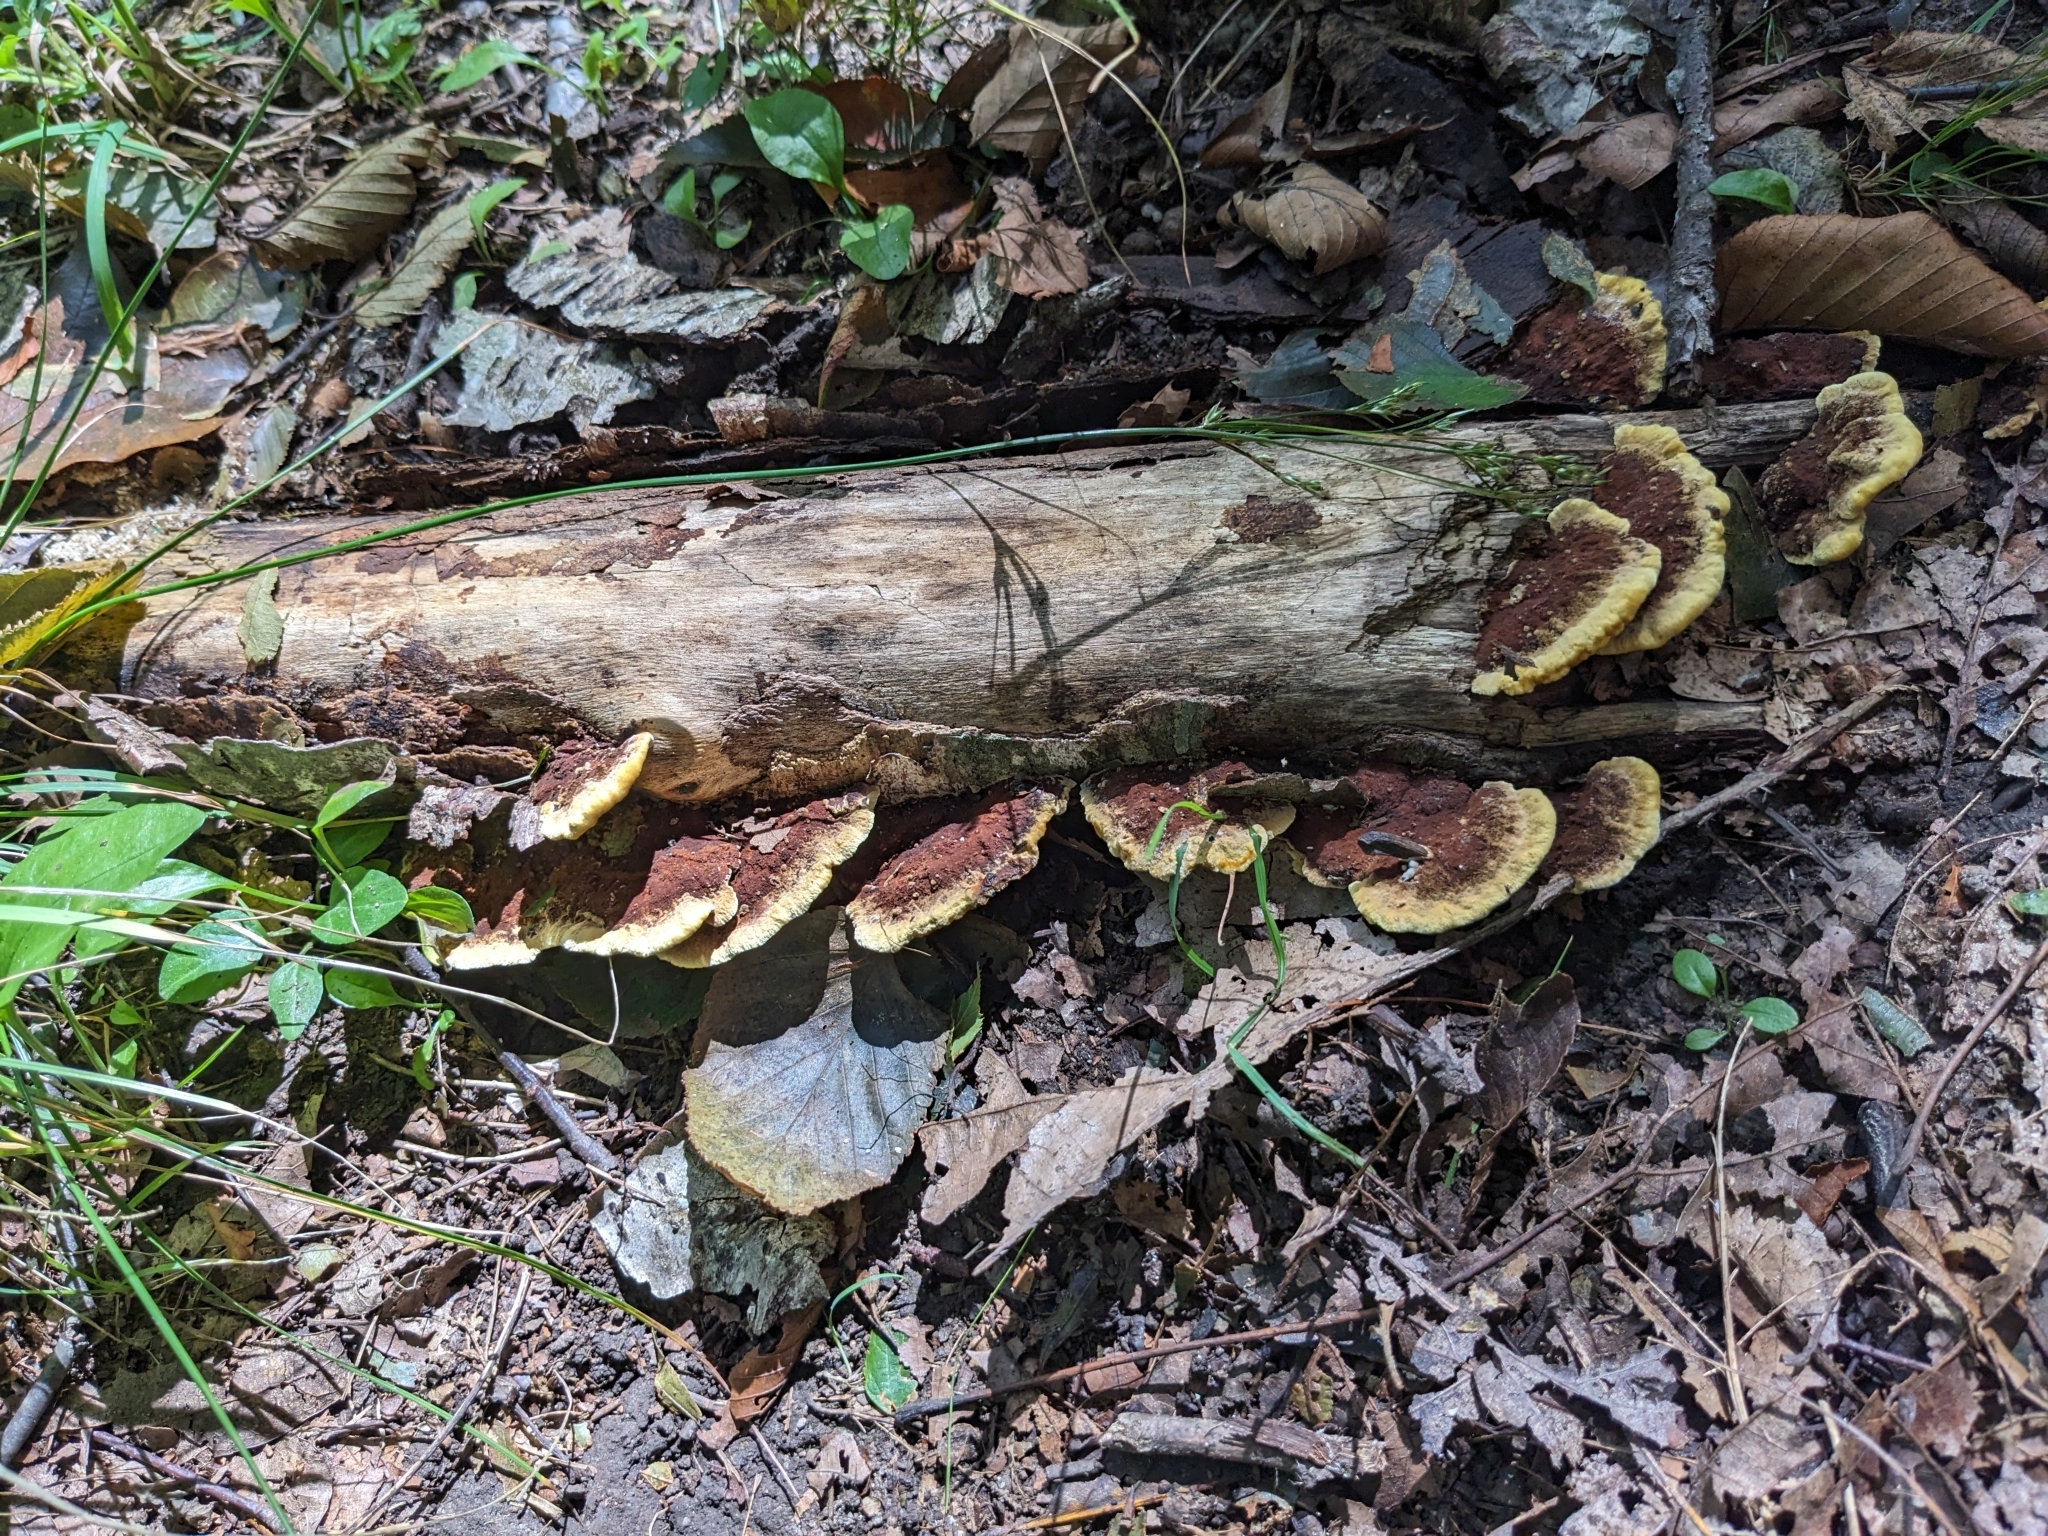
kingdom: Fungi
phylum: Basidiomycota
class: Agaricomycetes
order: Hymenochaetales
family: Hymenochaetaceae
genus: Phellinus
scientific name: Phellinus gilvus
